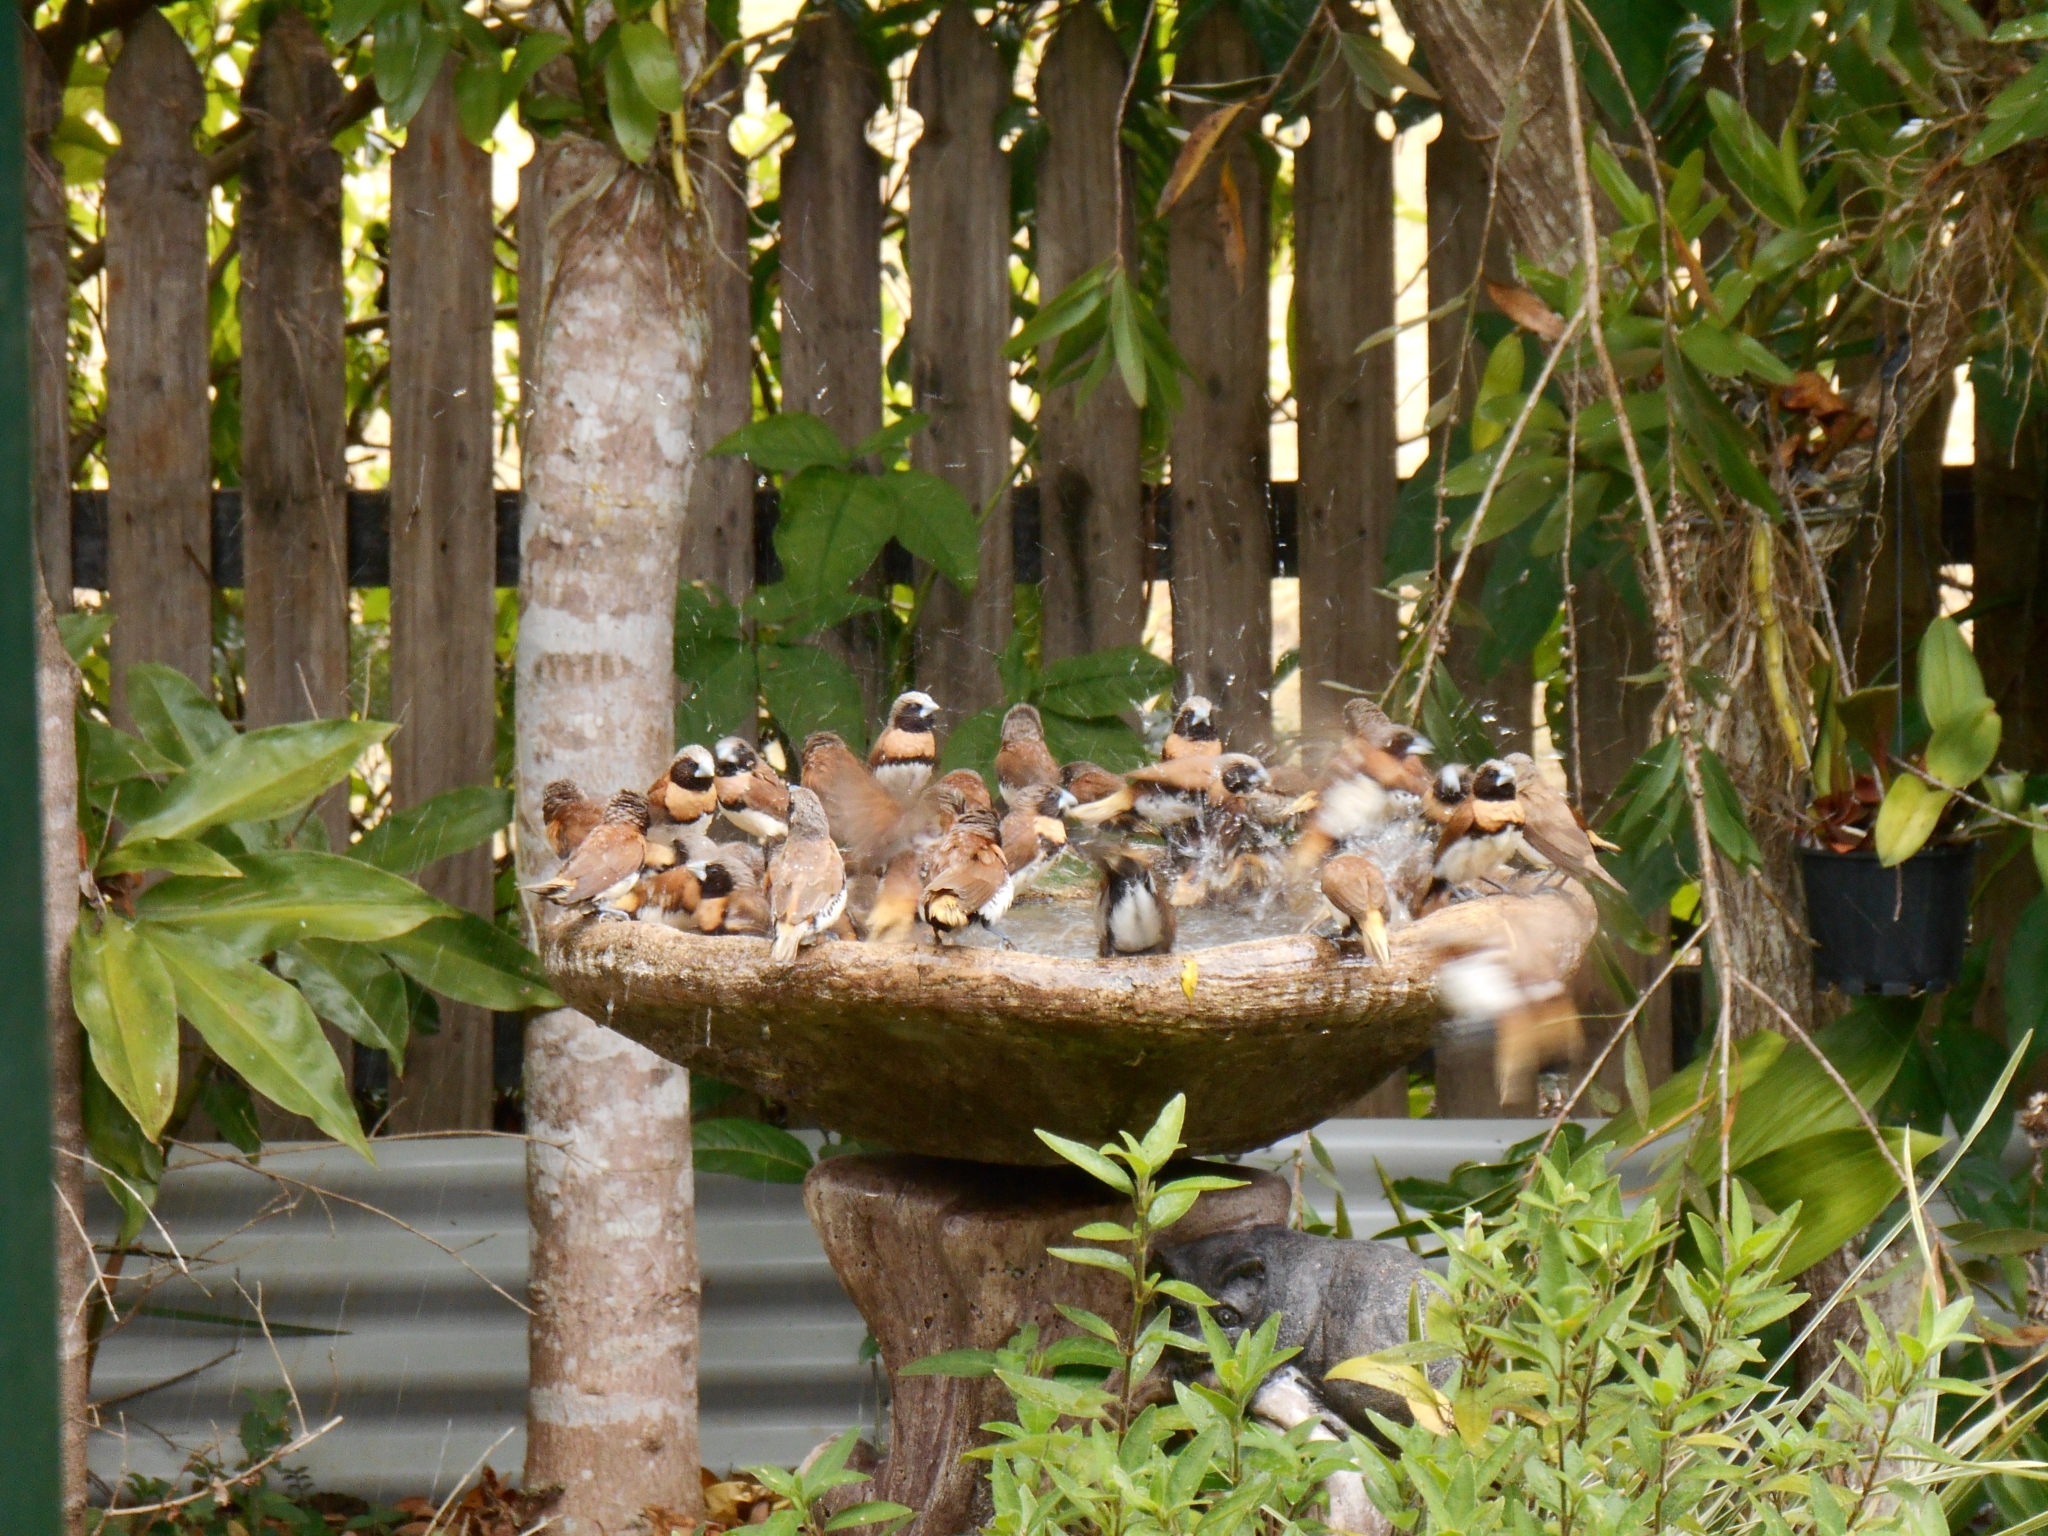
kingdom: Animalia
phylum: Chordata
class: Aves
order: Passeriformes
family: Estrildidae
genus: Lonchura
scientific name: Lonchura castaneothorax
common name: Chestnut-breasted mannikin
